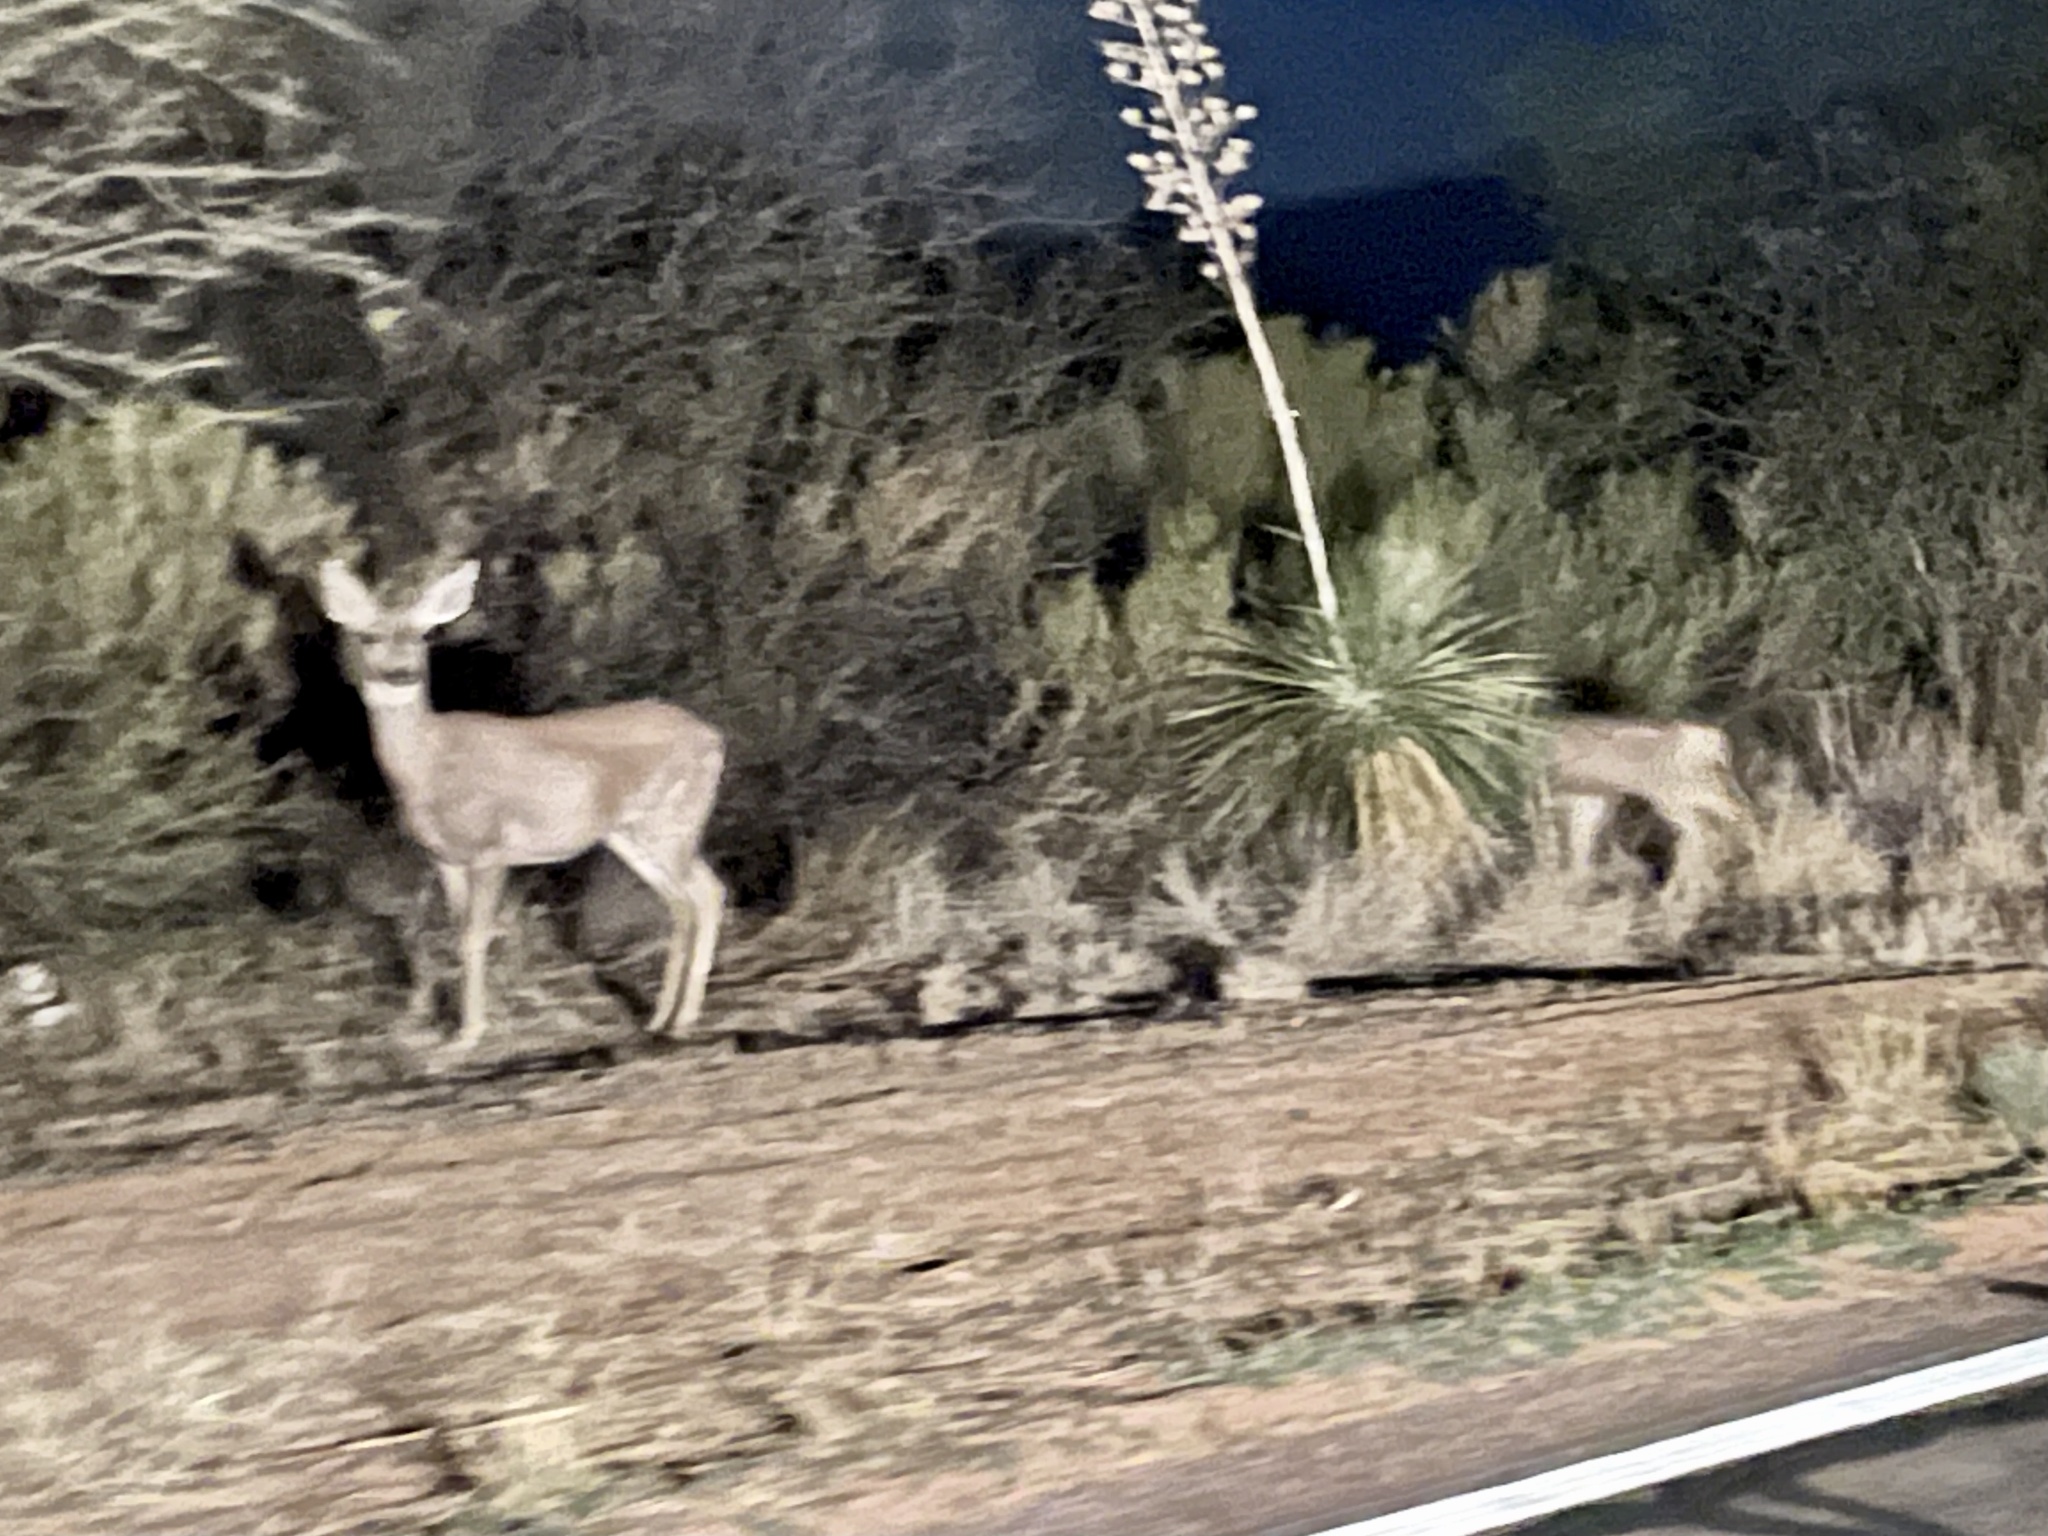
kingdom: Animalia
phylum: Chordata
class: Mammalia
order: Artiodactyla
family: Cervidae
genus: Odocoileus
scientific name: Odocoileus hemionus
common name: Mule deer
